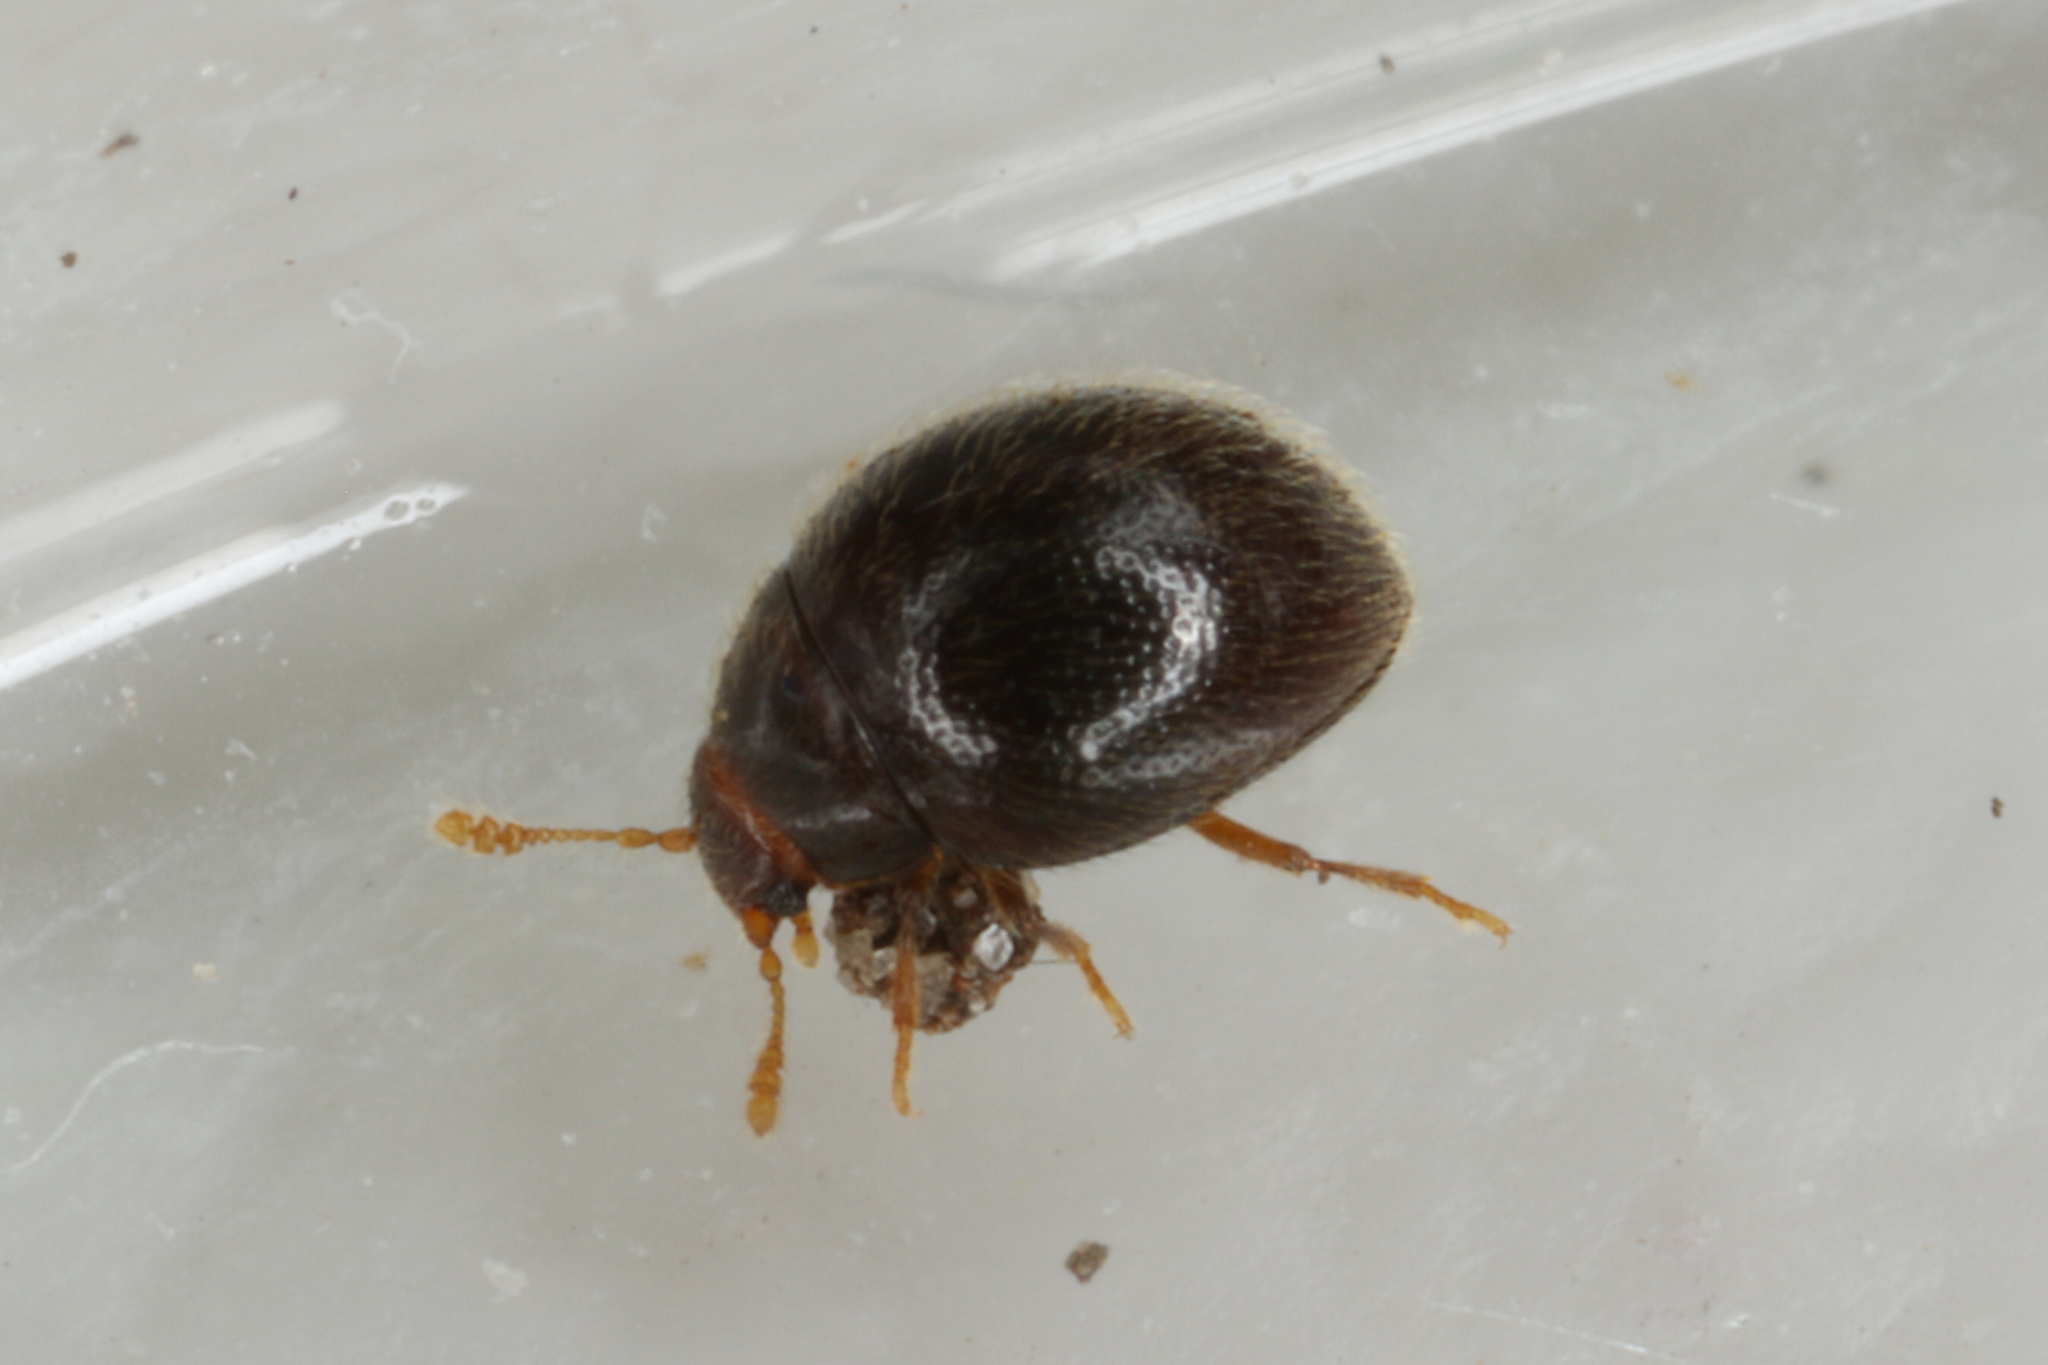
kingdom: Animalia
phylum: Arthropoda
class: Insecta
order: Coleoptera
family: Histeridae
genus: Sphaericosoma
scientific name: Sphaericosoma Sphaerosoma pilosum
